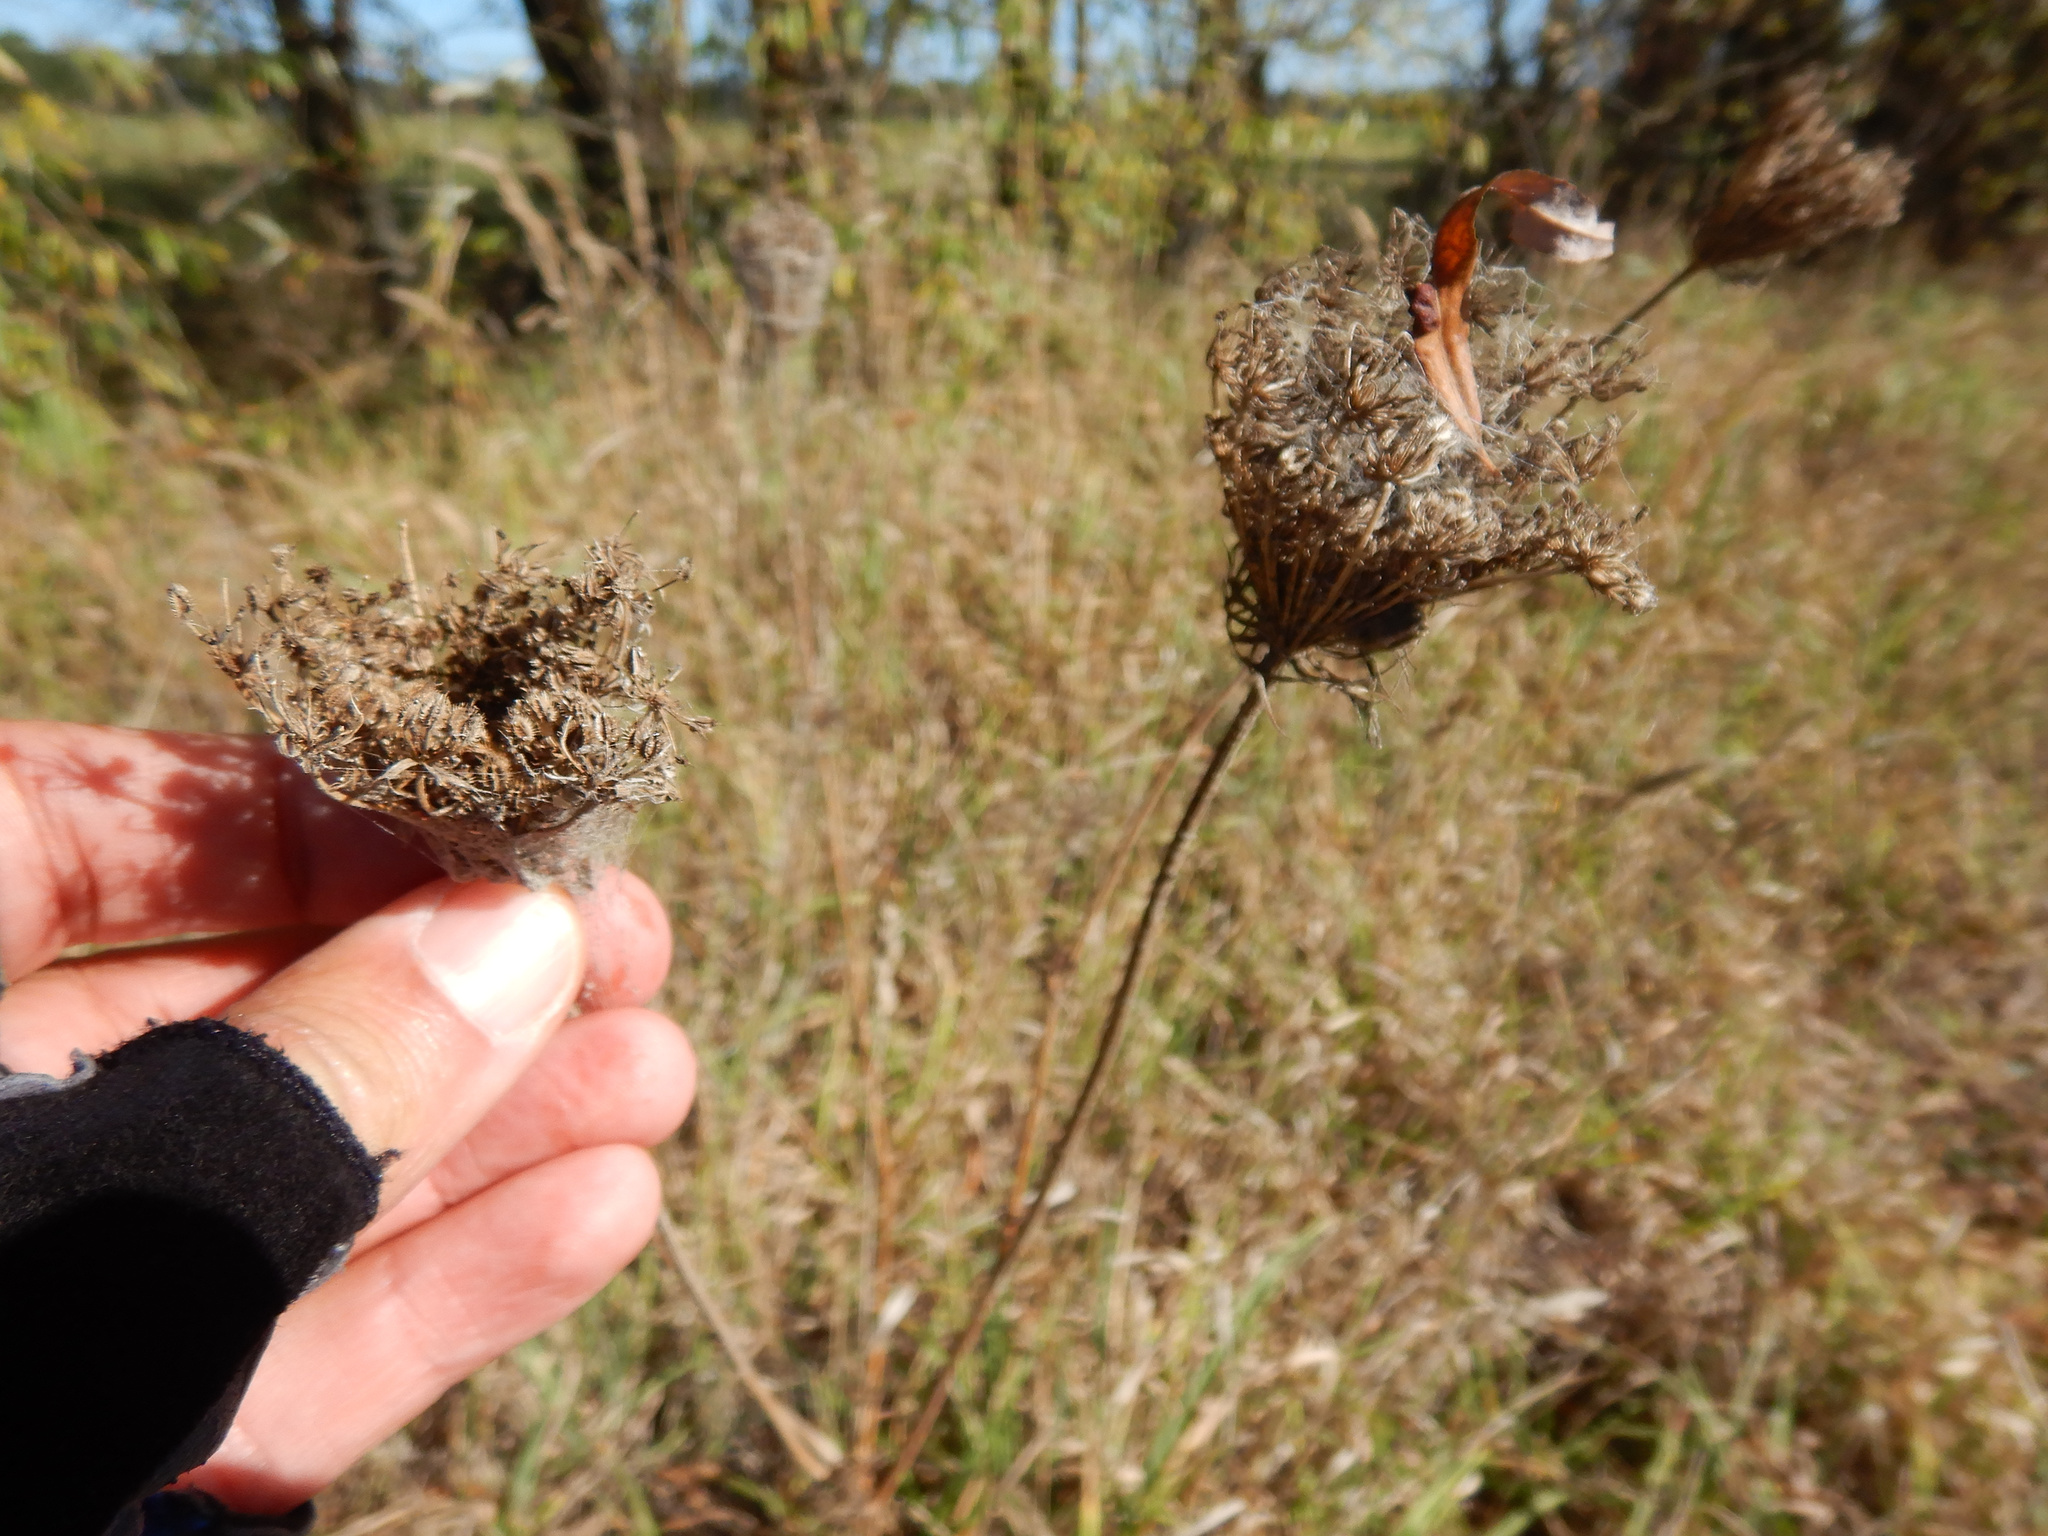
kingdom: Plantae
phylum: Tracheophyta
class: Magnoliopsida
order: Apiales
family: Apiaceae
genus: Daucus
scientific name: Daucus carota
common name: Wild carrot
